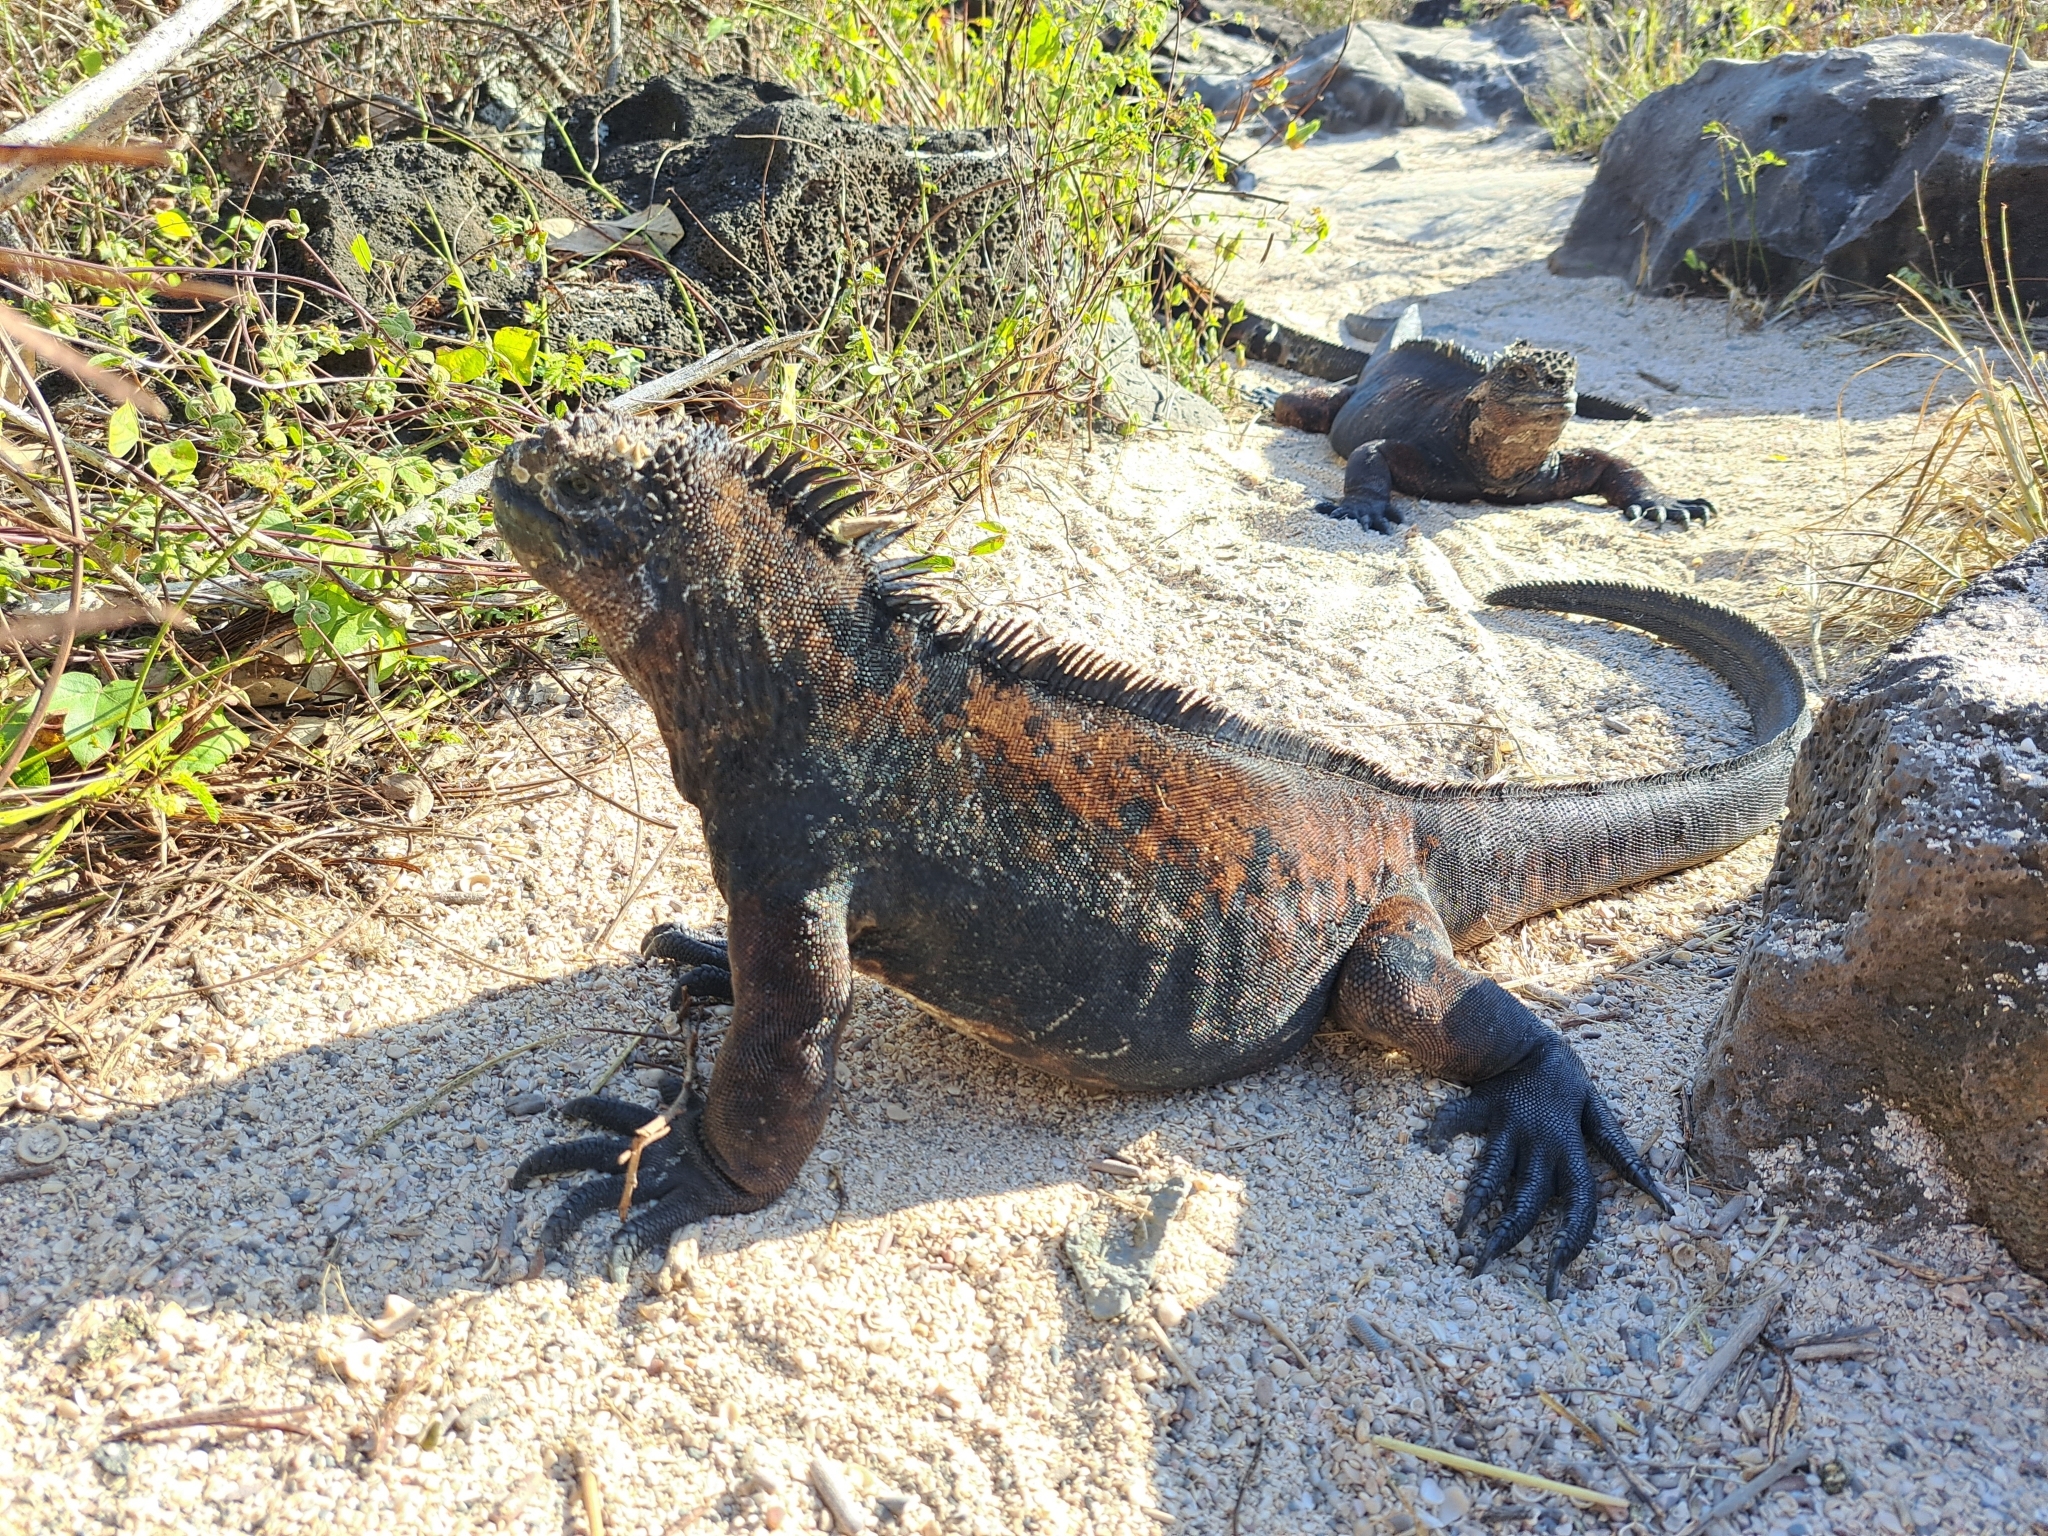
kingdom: Animalia
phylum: Chordata
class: Squamata
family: Iguanidae
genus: Amblyrhynchus
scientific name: Amblyrhynchus cristatus
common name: Marine iguana
